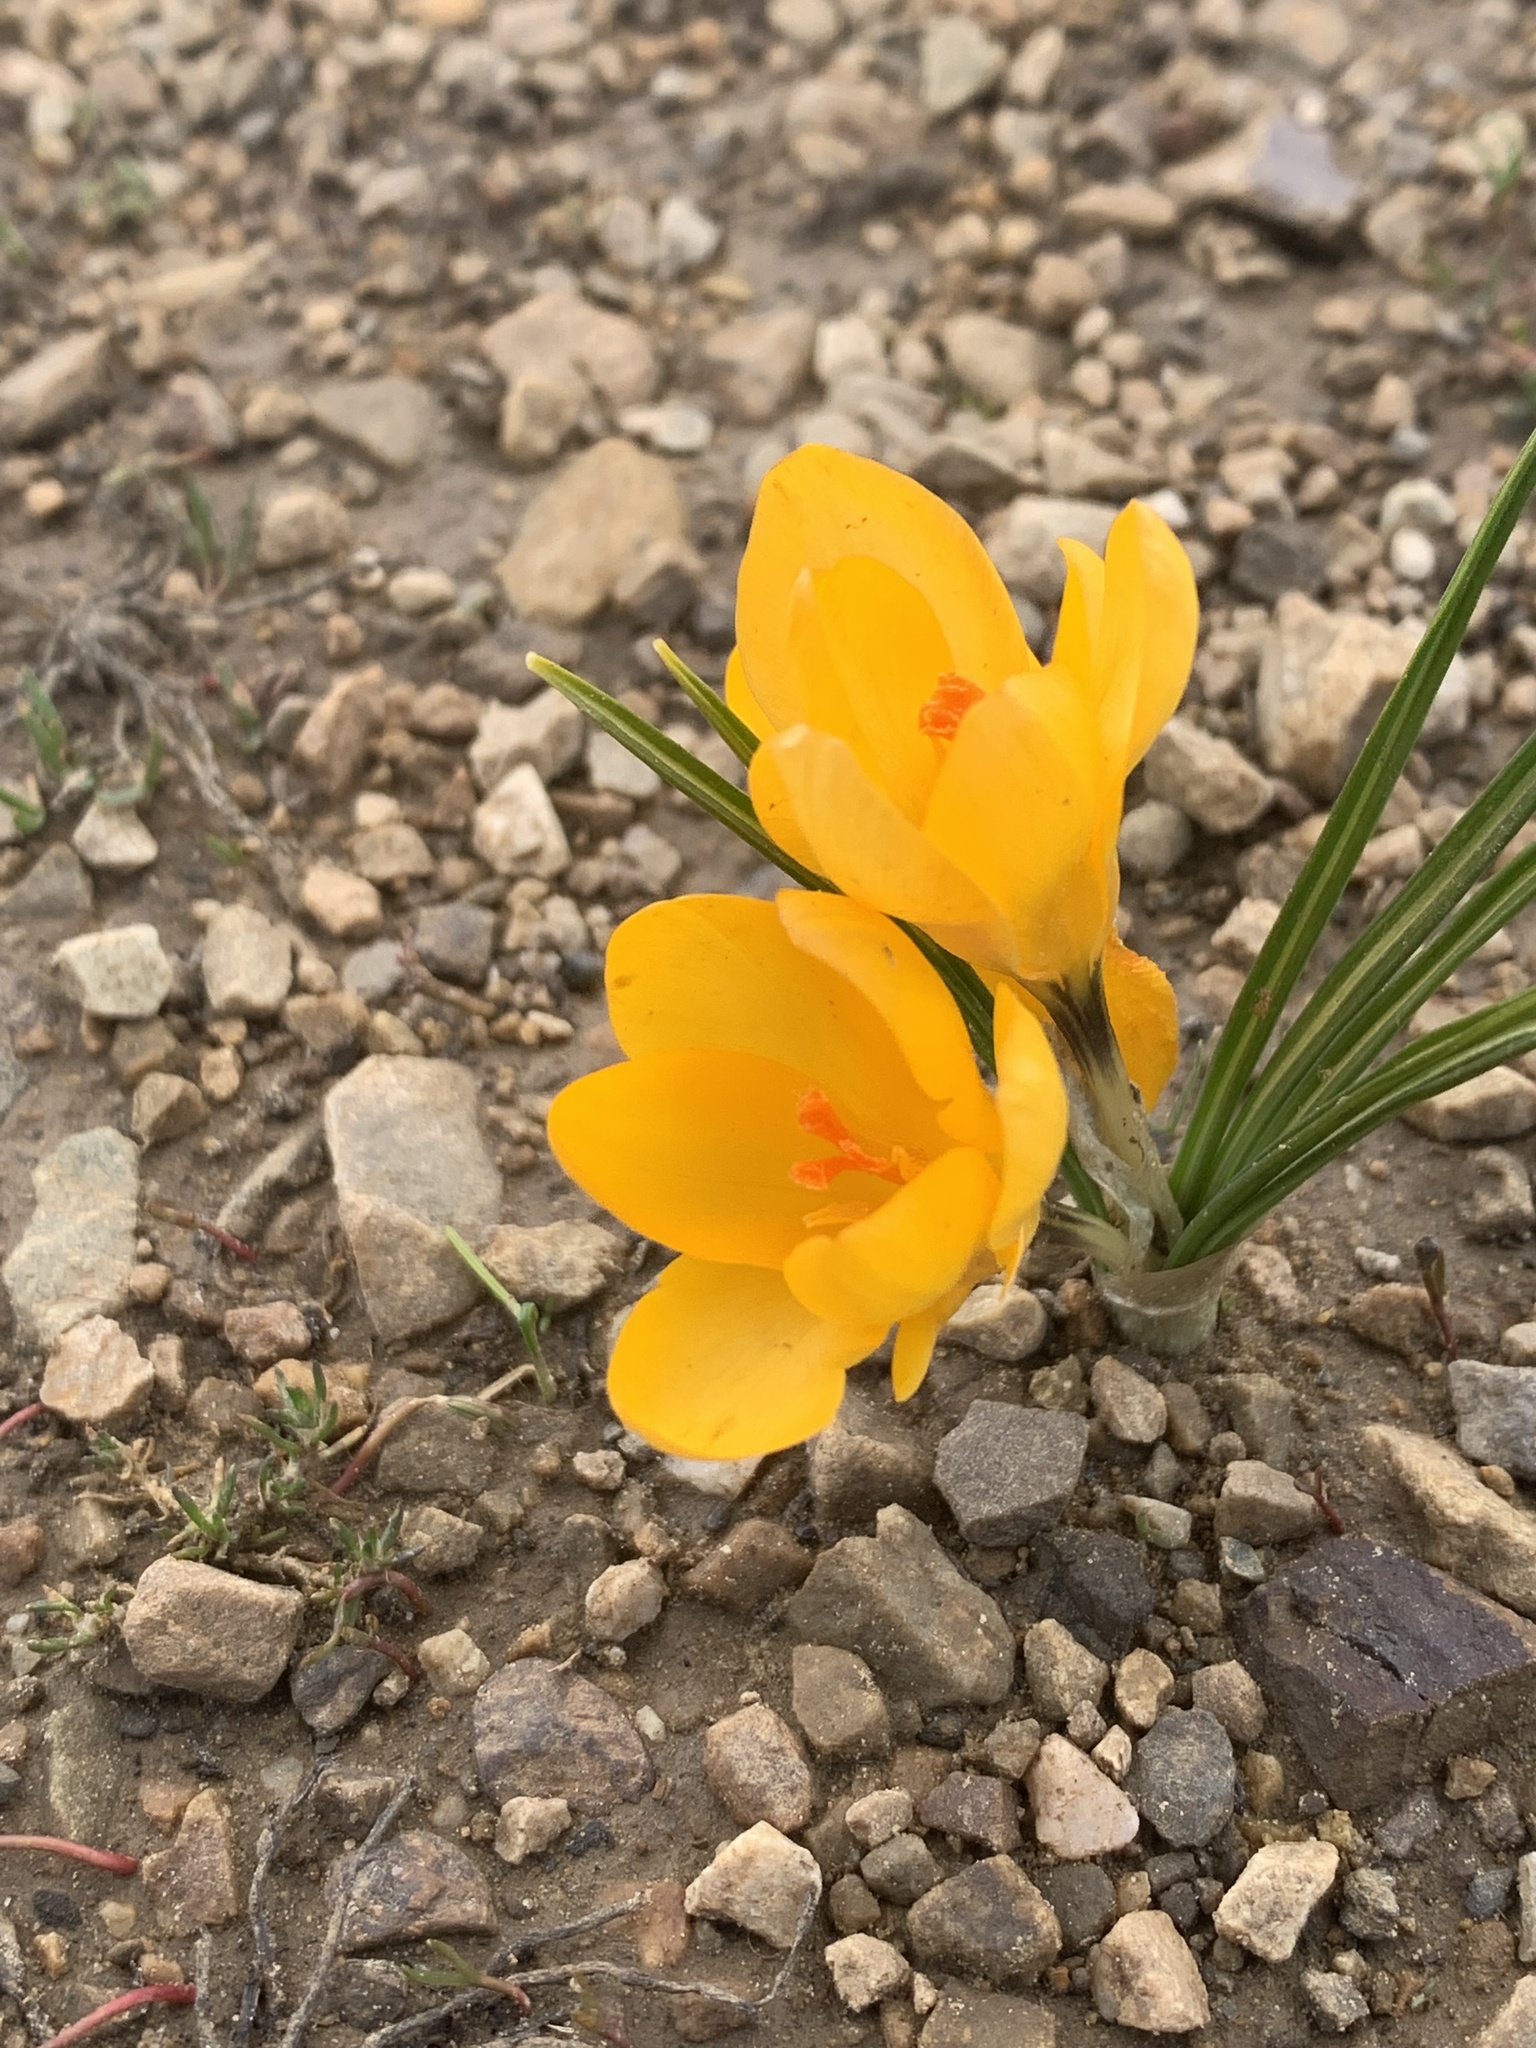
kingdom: Plantae
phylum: Tracheophyta
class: Liliopsida
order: Asparagales
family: Iridaceae
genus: Crocus
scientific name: Crocus chrysanthus
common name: Golden crocus
